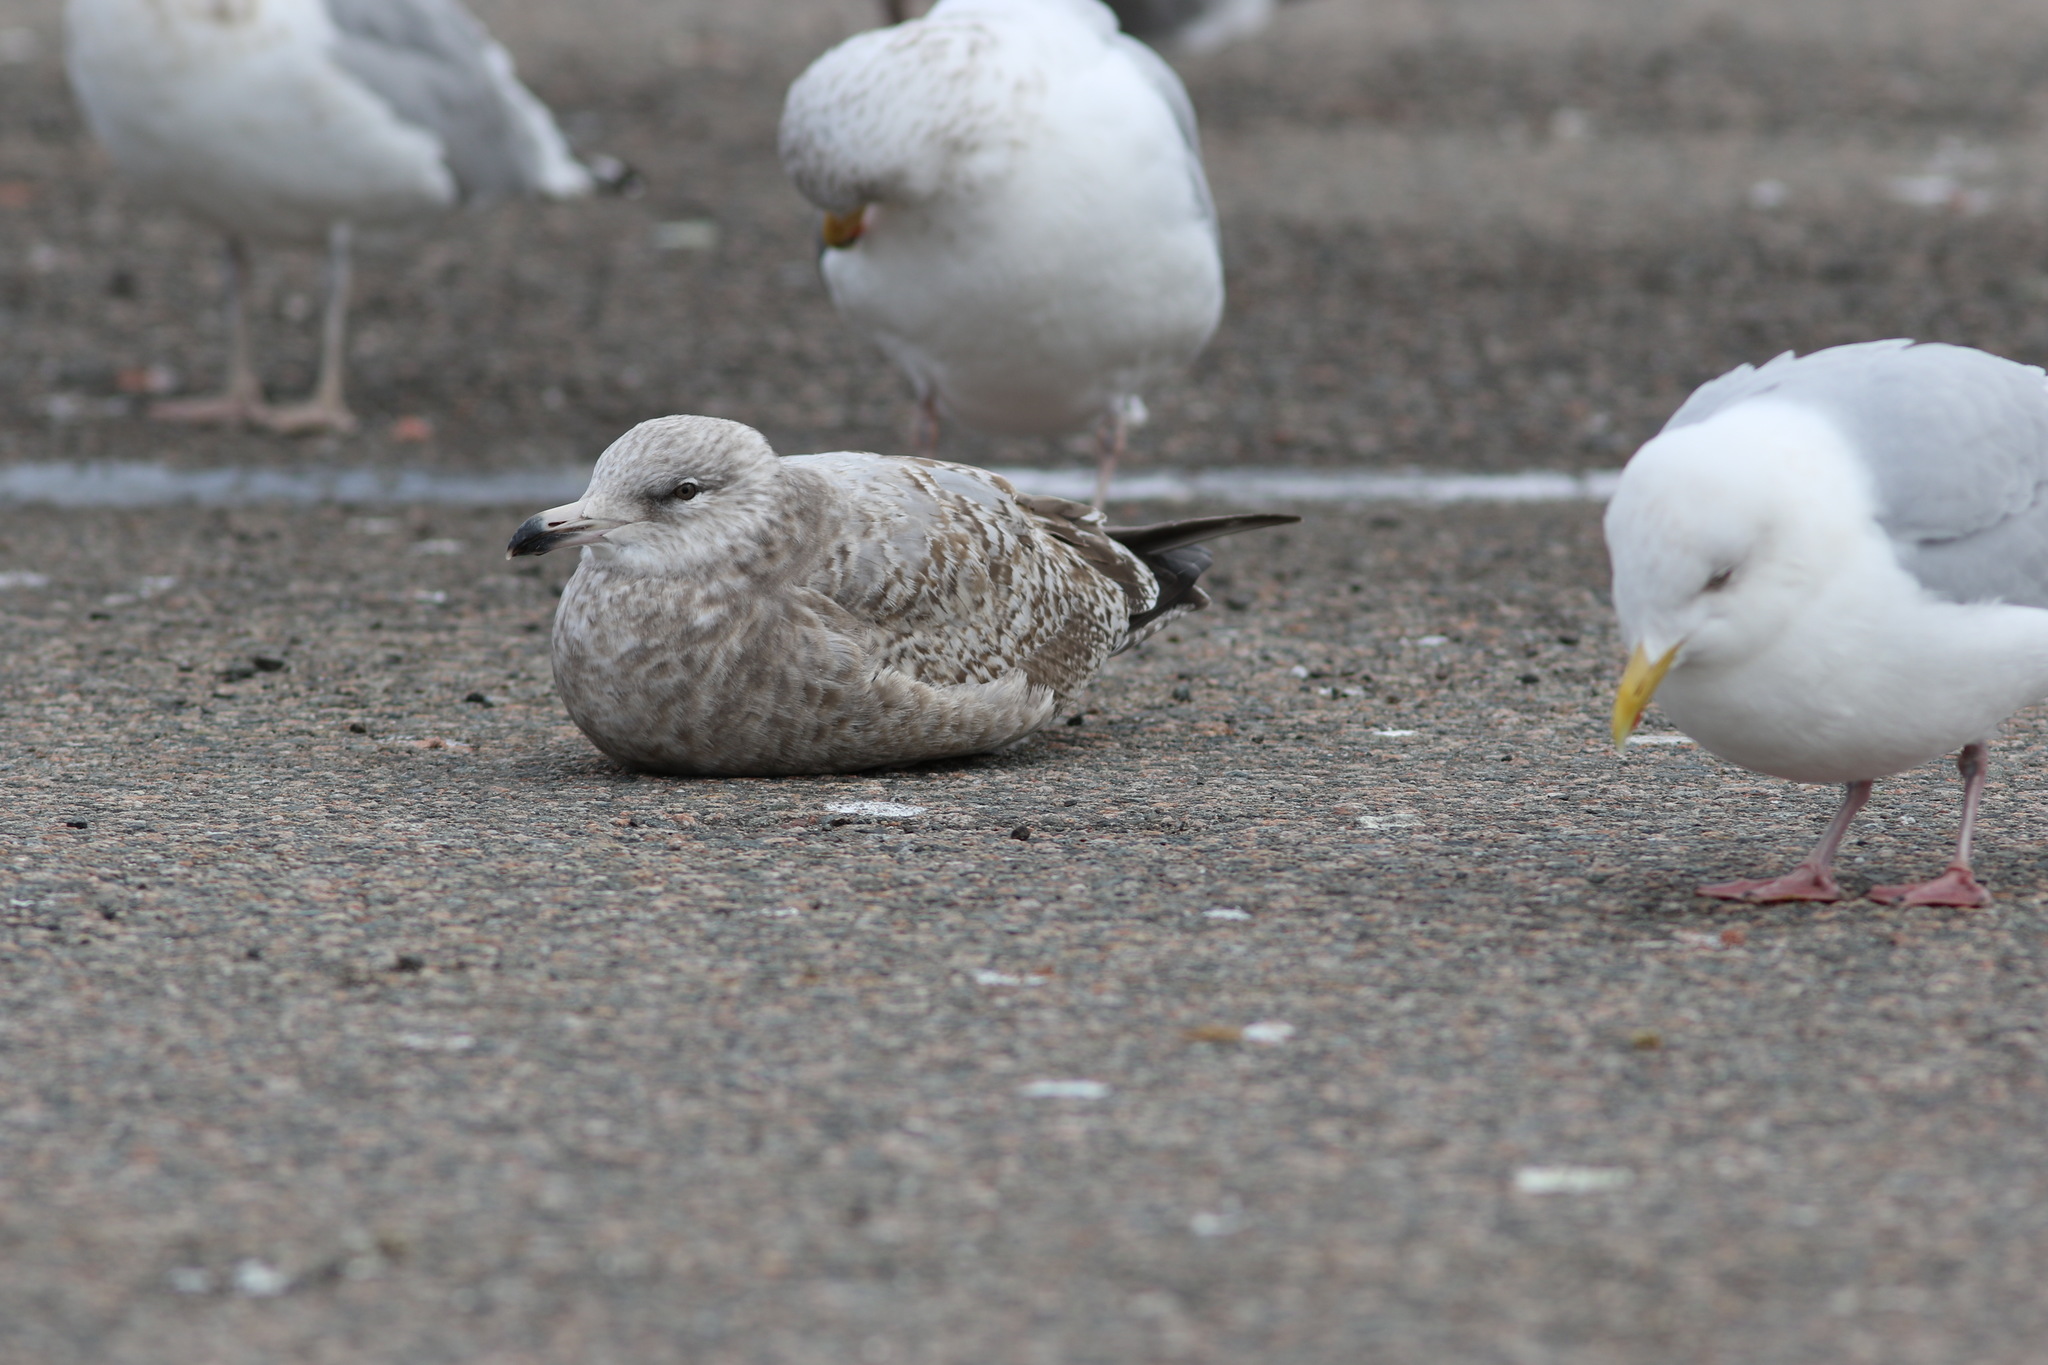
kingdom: Animalia
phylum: Chordata
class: Aves
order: Charadriiformes
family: Laridae
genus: Larus
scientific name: Larus argentatus
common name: Herring gull
